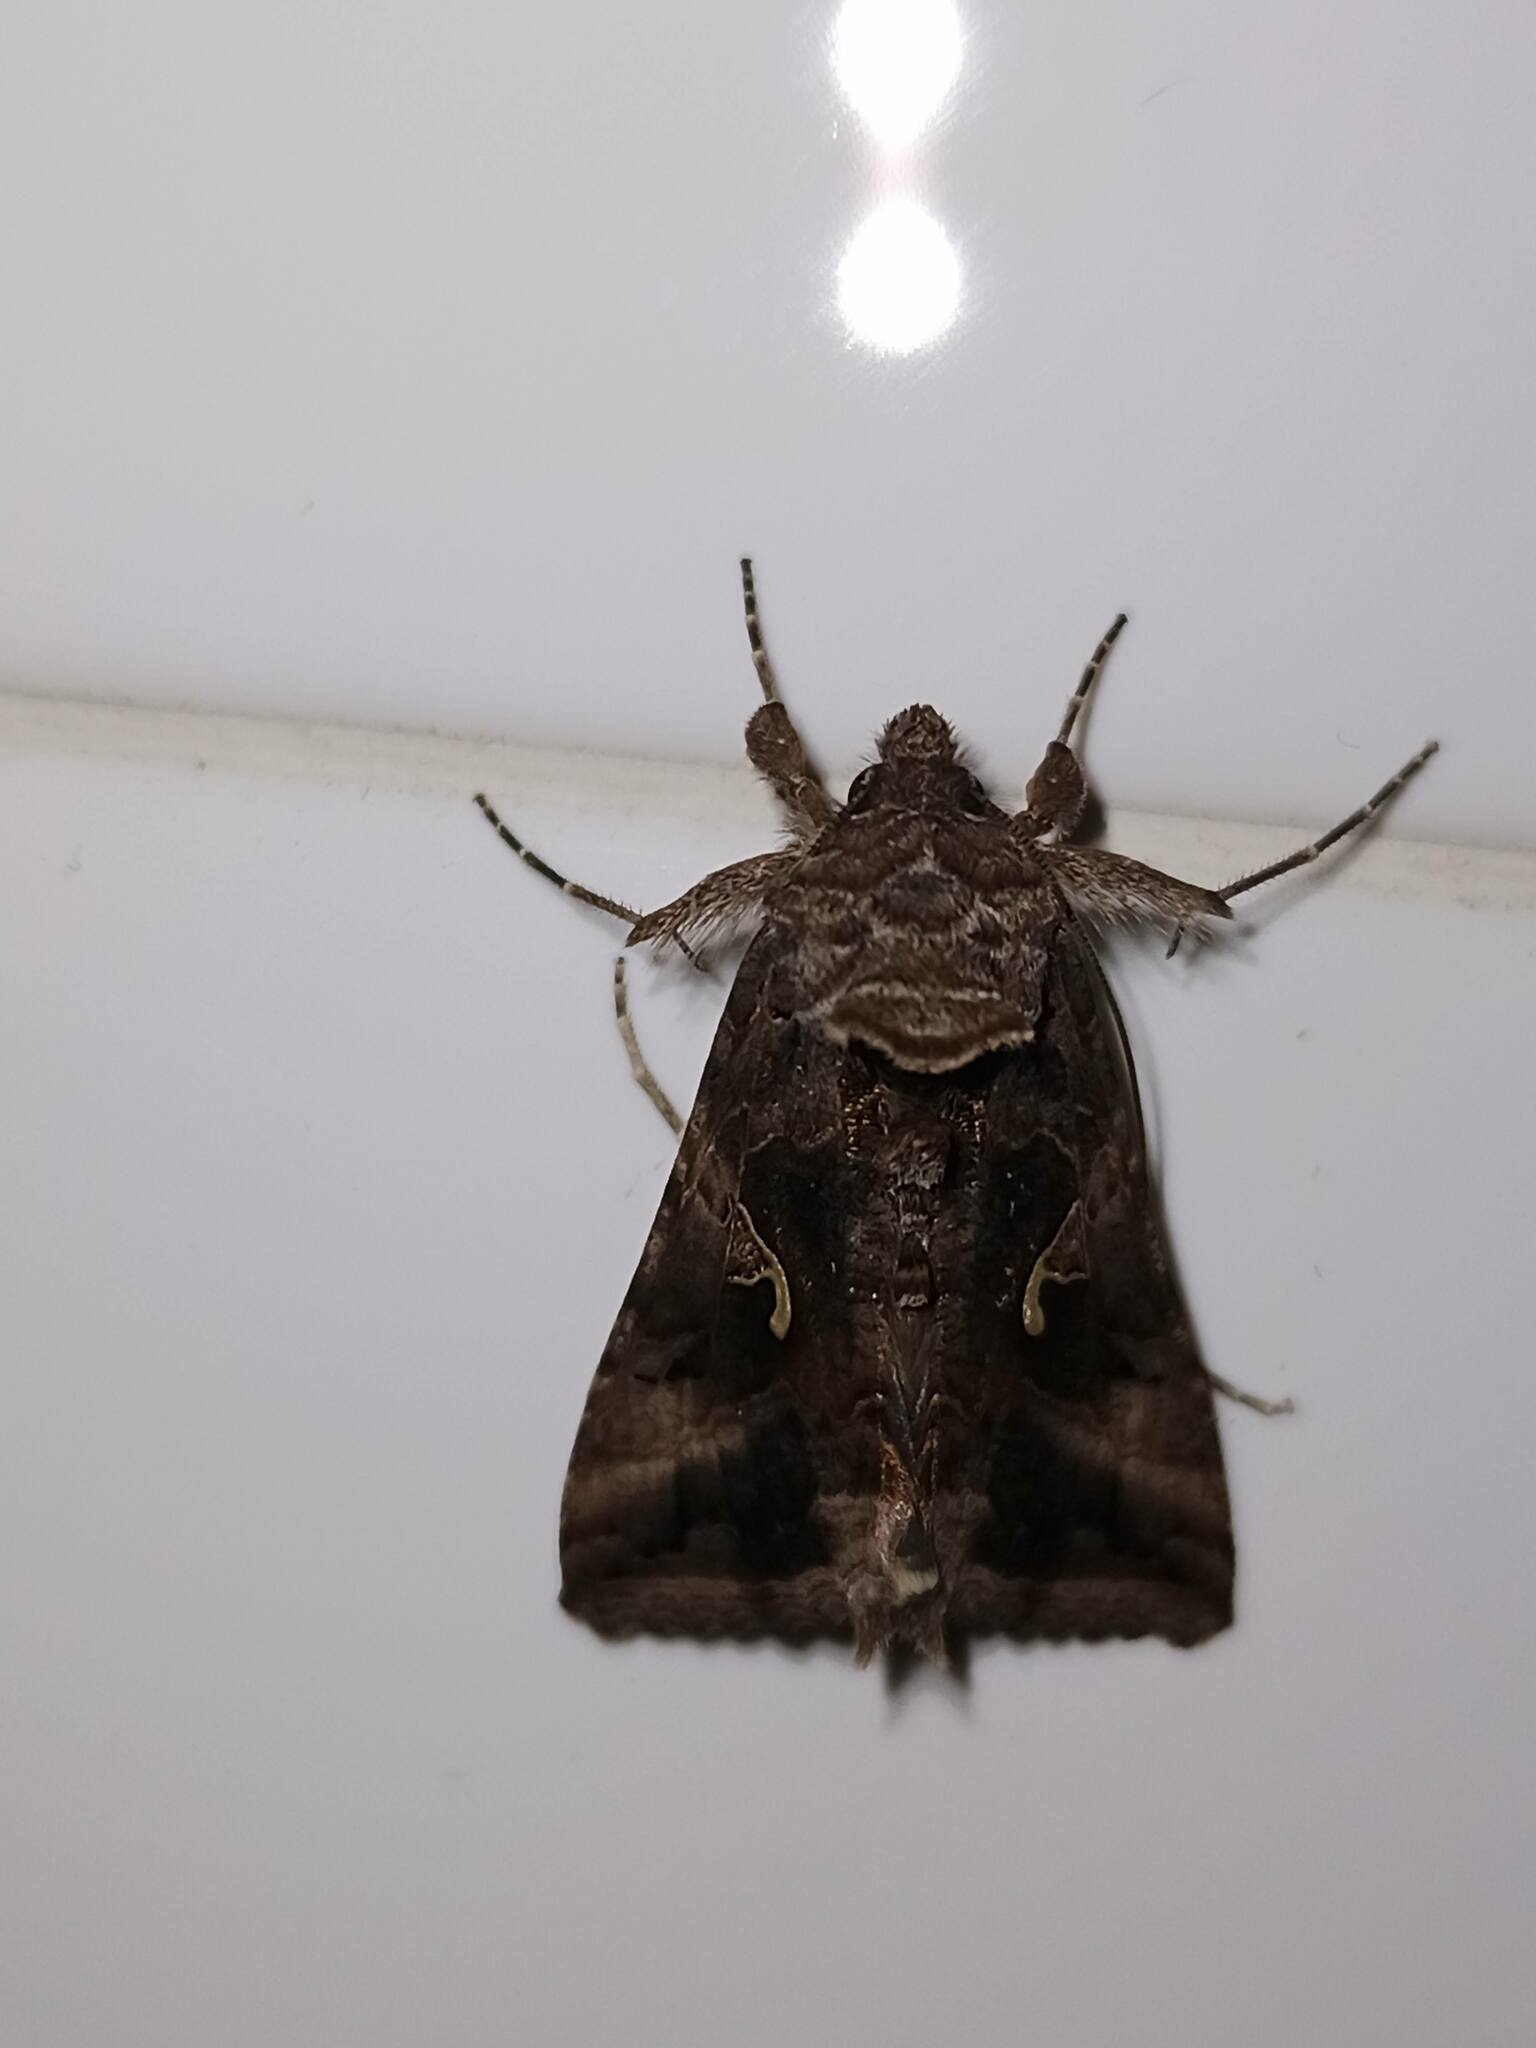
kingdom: Animalia
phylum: Arthropoda
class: Insecta
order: Lepidoptera
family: Noctuidae
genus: Autographa
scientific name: Autographa gamma
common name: Silver y
